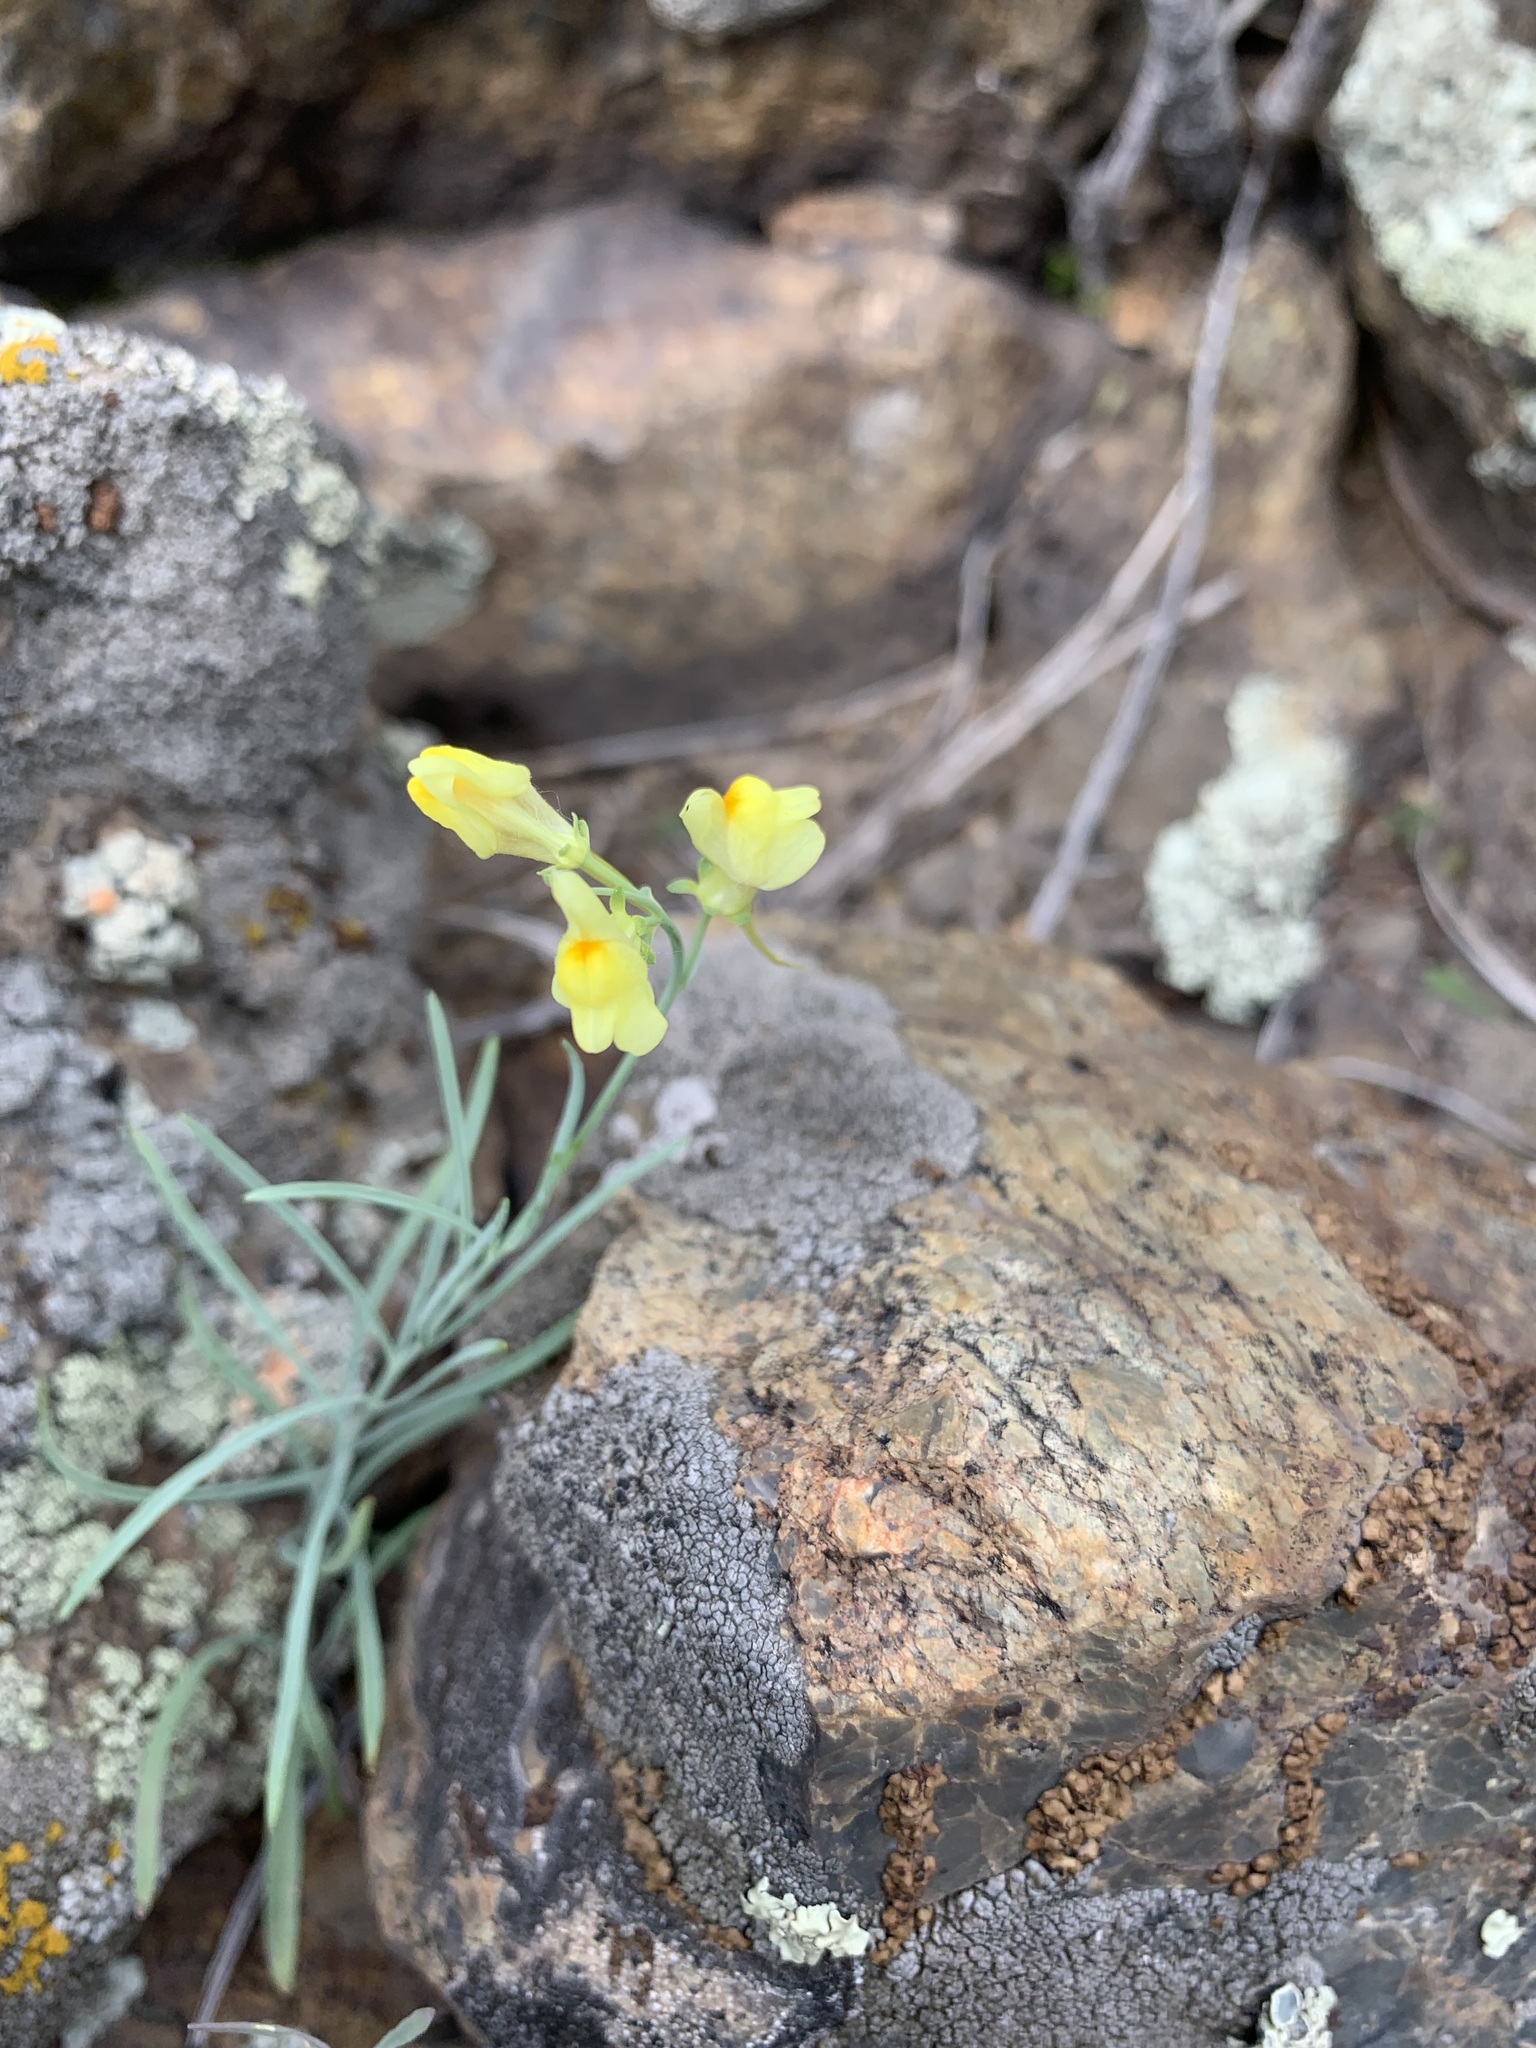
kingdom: Plantae
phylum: Tracheophyta
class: Magnoliopsida
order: Lamiales
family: Plantaginaceae
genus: Linaria
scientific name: Linaria odora
